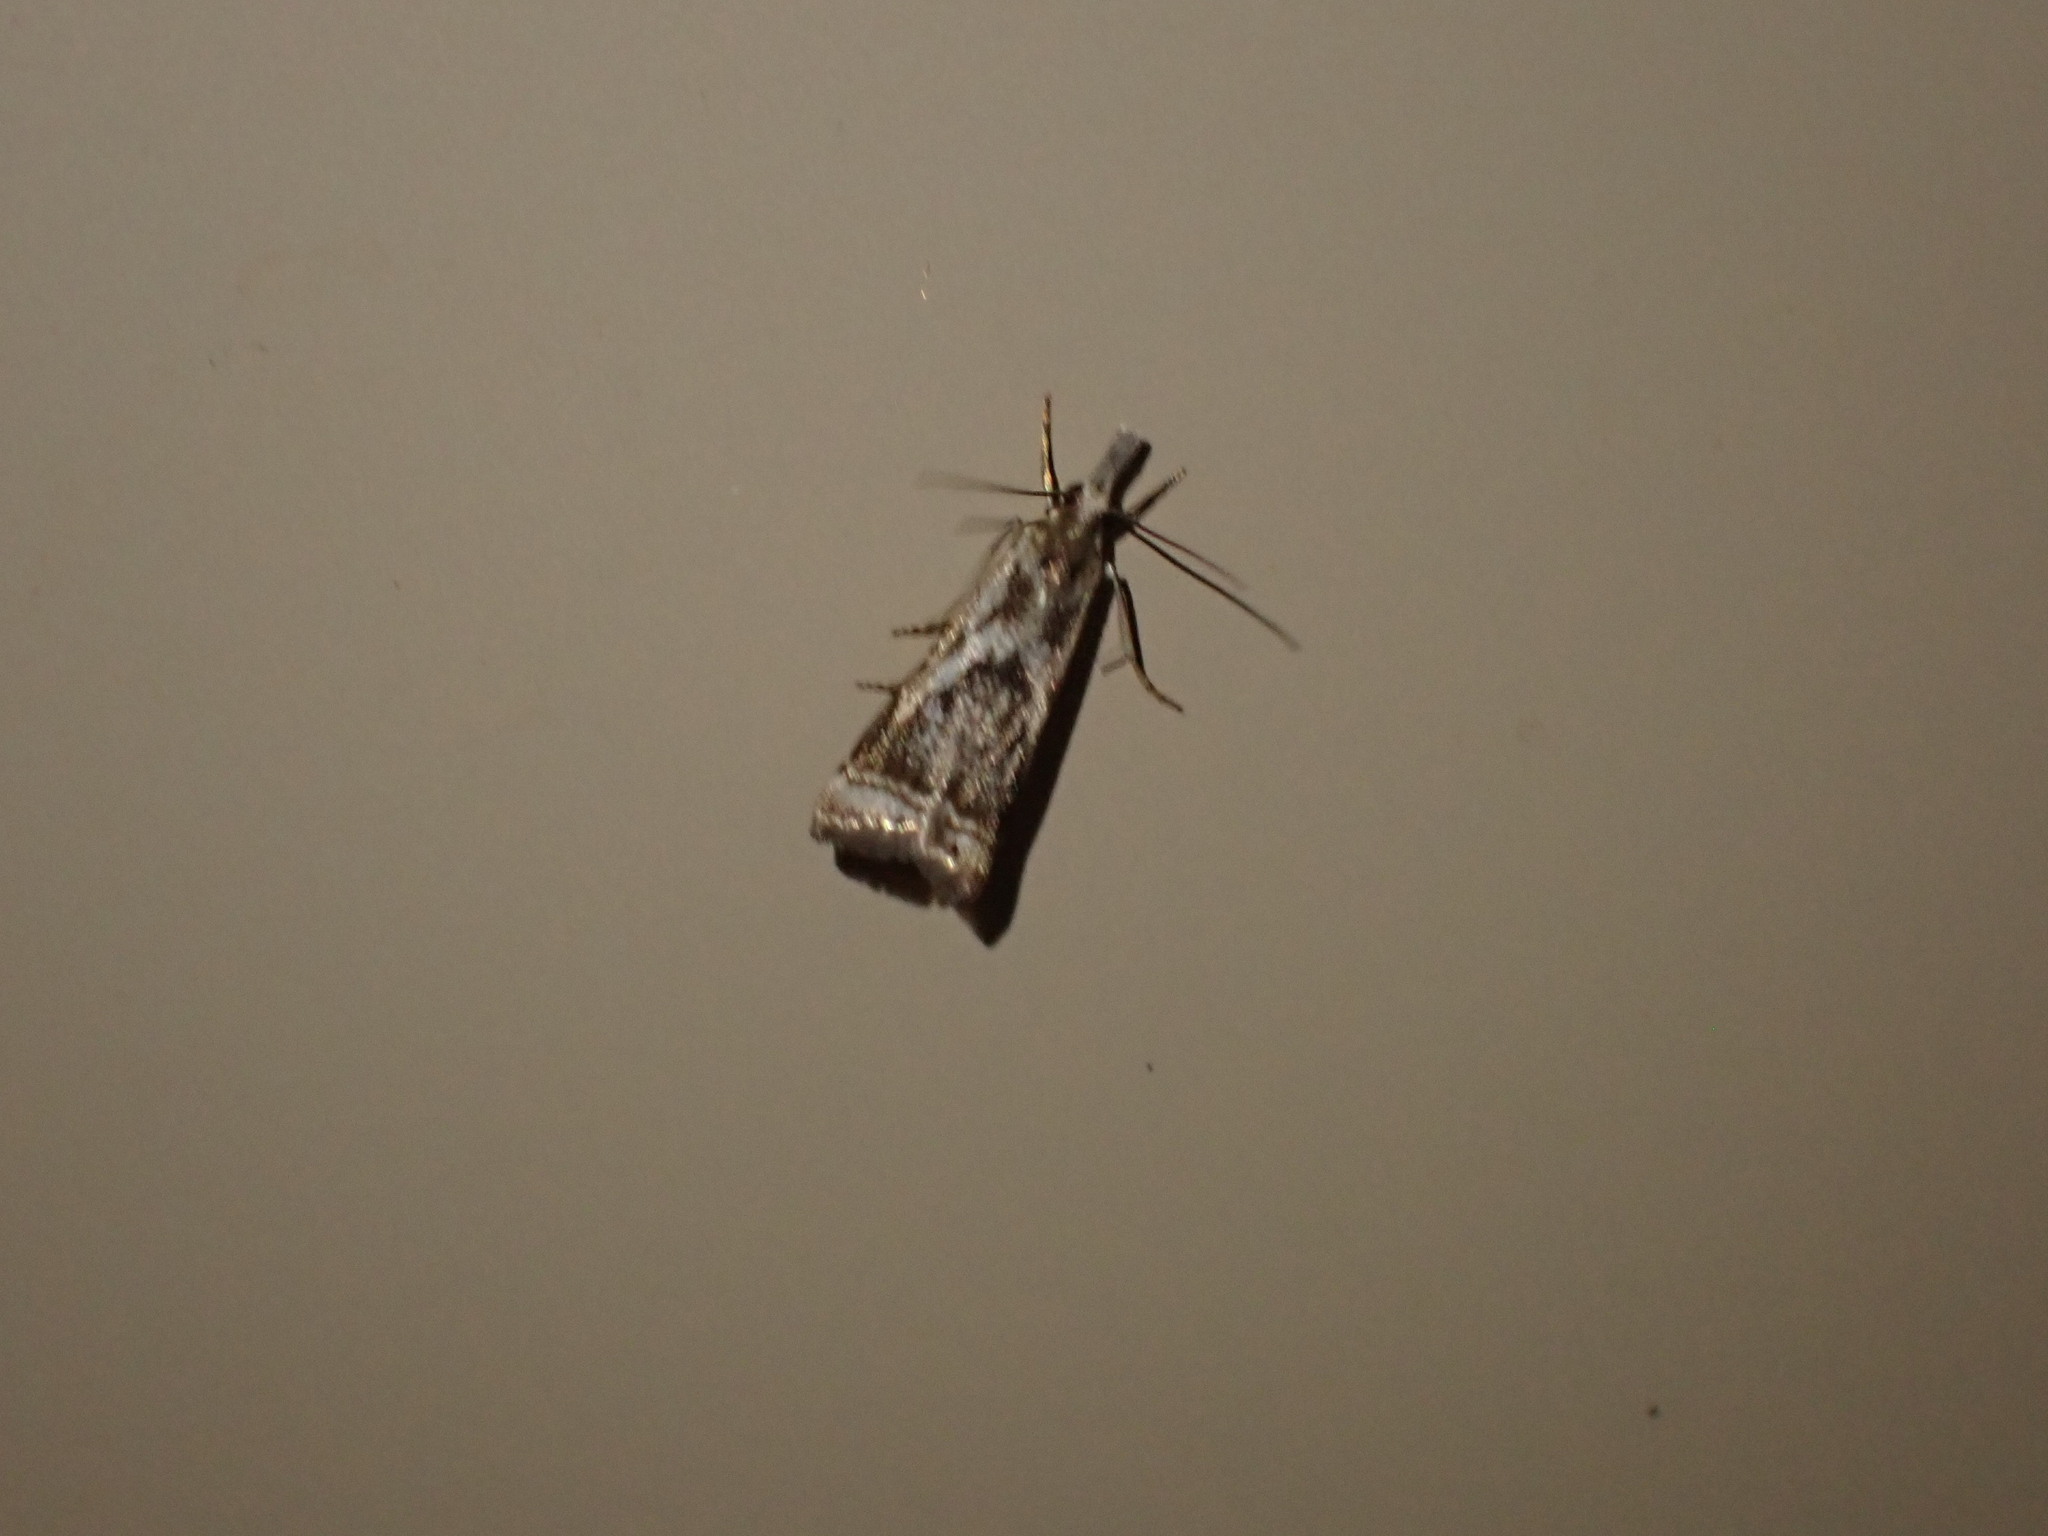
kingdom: Animalia
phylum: Arthropoda
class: Insecta
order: Lepidoptera
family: Crambidae
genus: Microcrambus
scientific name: Microcrambus elegans
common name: Elegant grass-veneer
